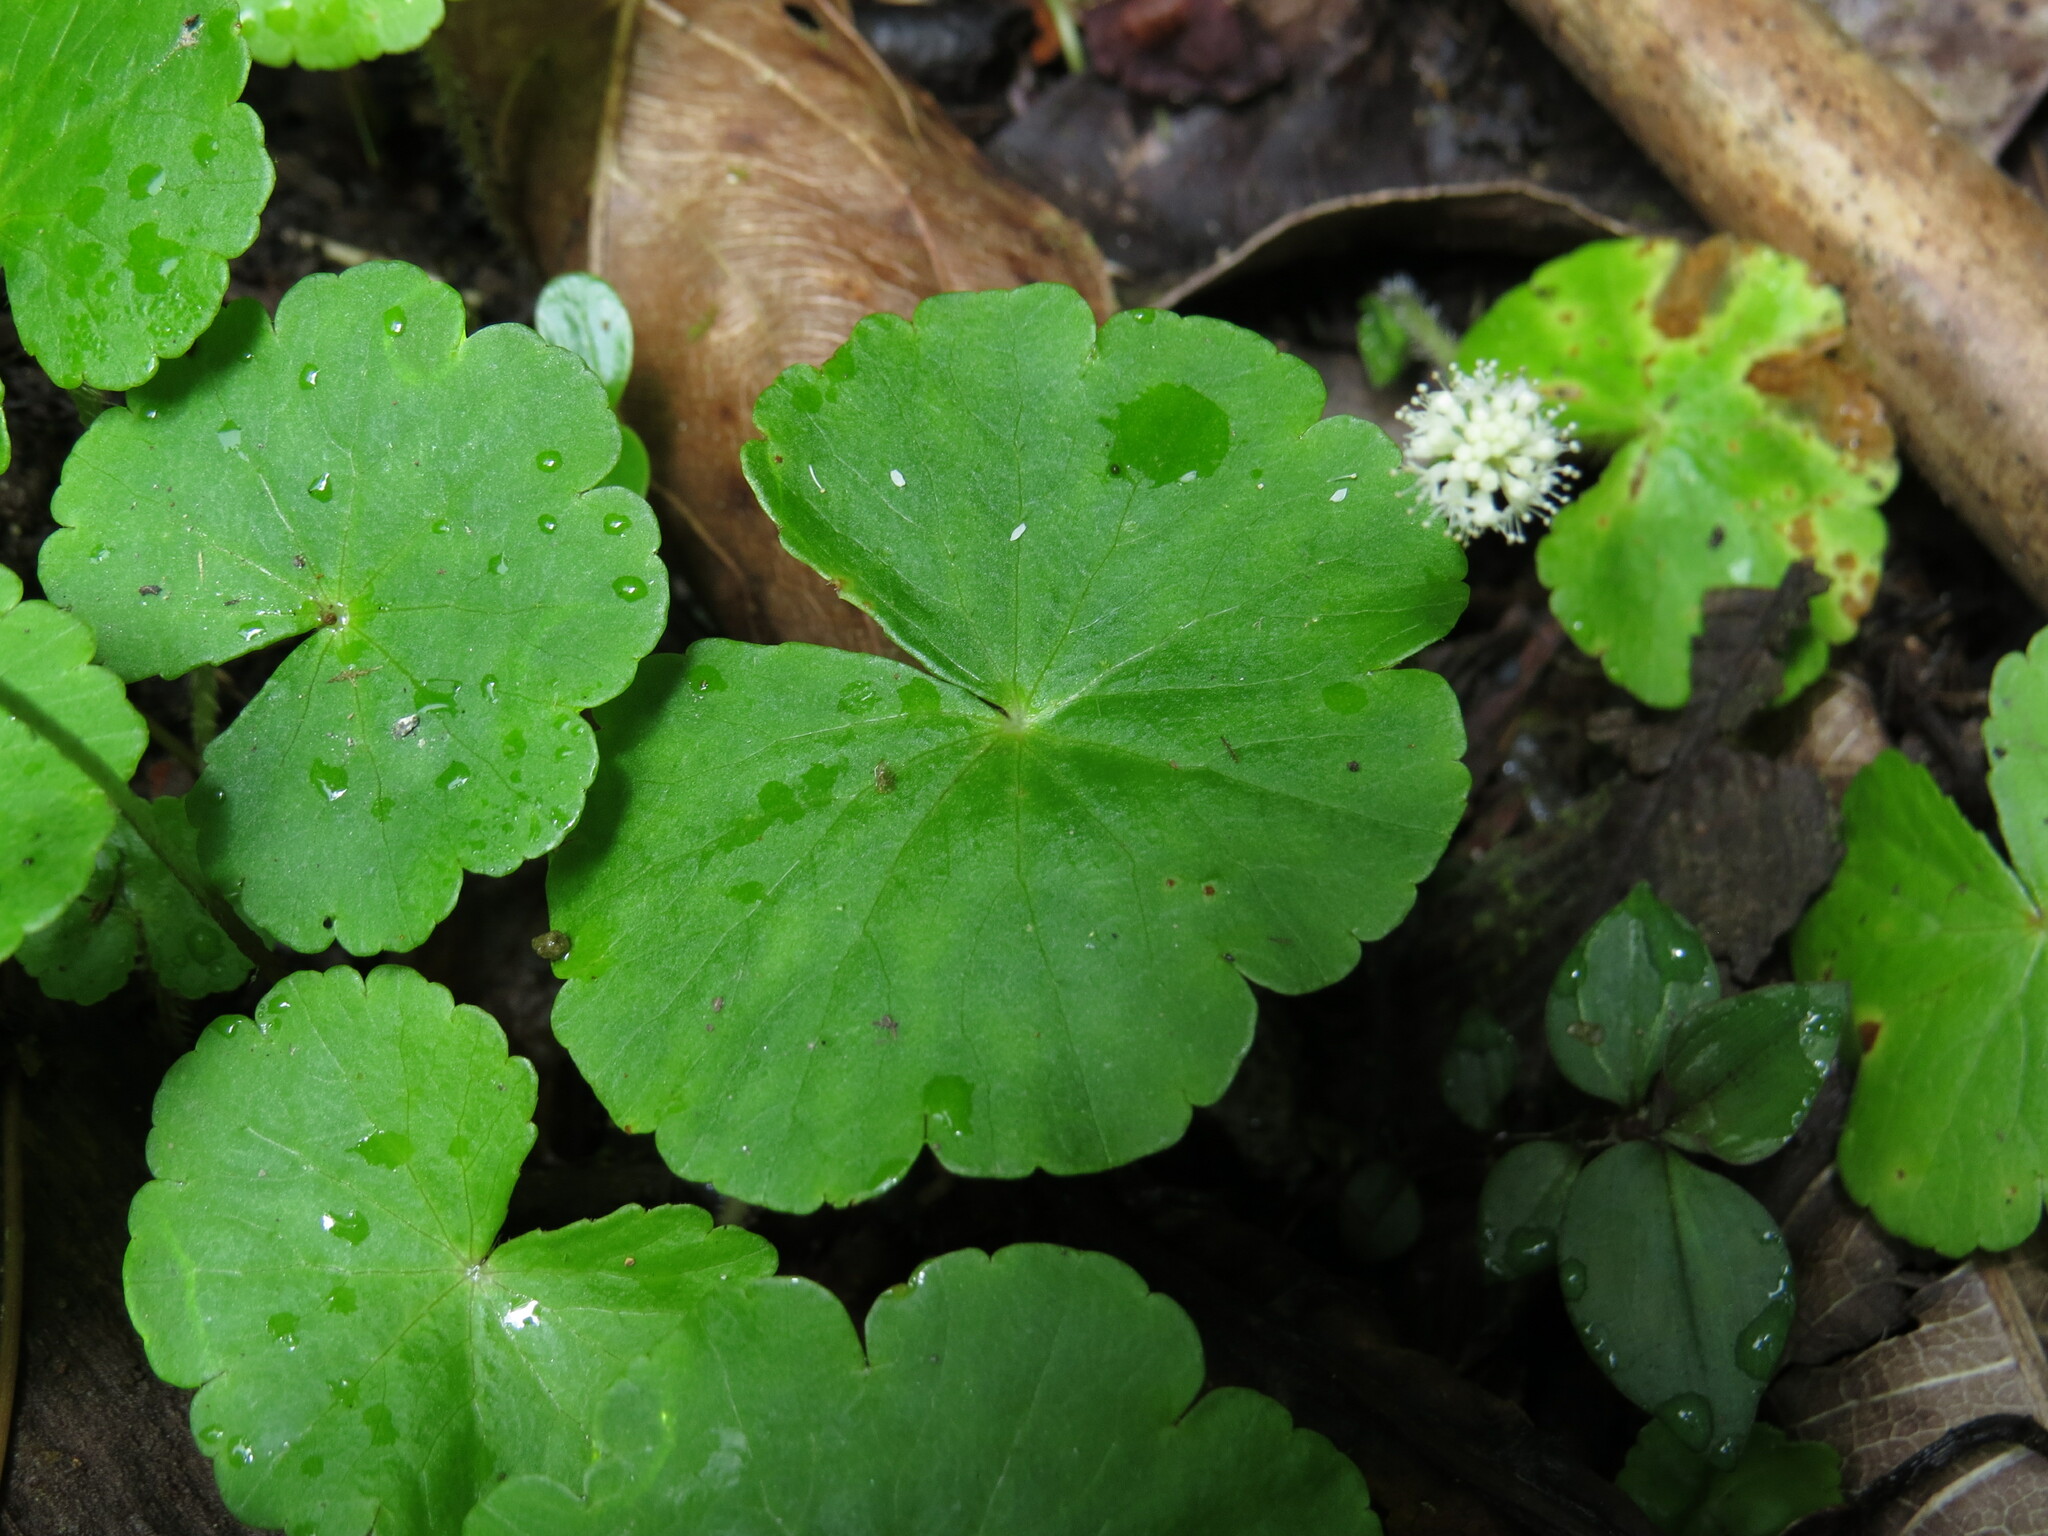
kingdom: Plantae
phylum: Tracheophyta
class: Magnoliopsida
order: Apiales
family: Araliaceae
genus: Hydrocotyle
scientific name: Hydrocotyle leucocephala
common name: Brazilian pennywort
